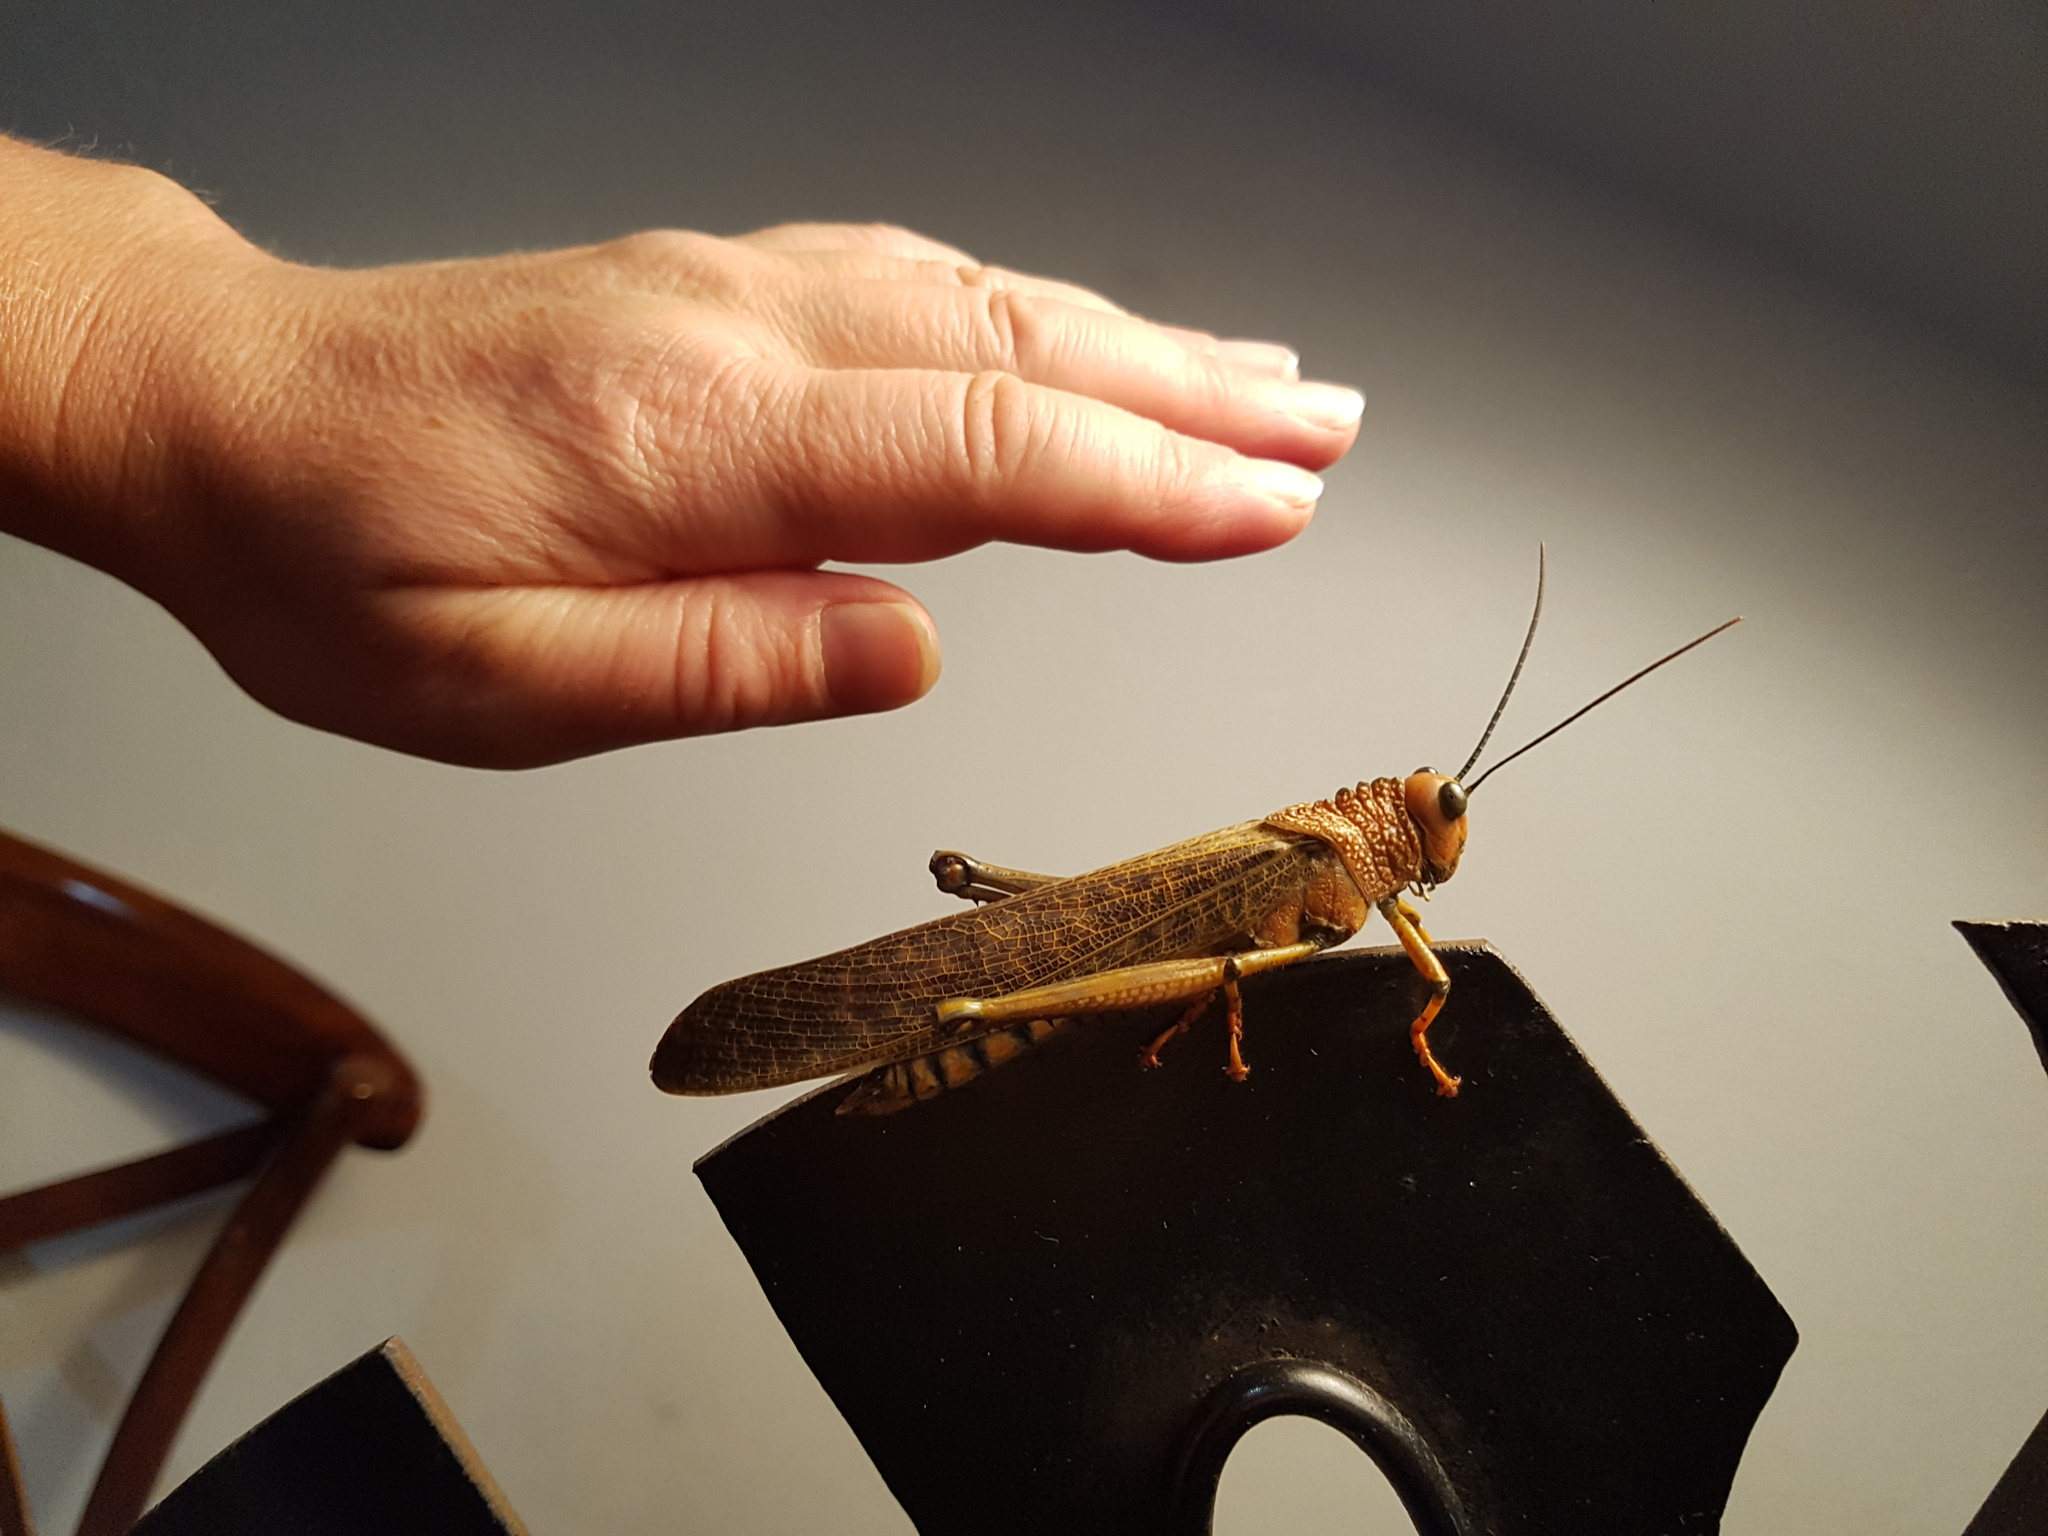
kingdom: Animalia
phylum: Arthropoda
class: Insecta
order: Orthoptera
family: Romaleidae
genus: Tropidacris
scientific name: Tropidacris cristata
